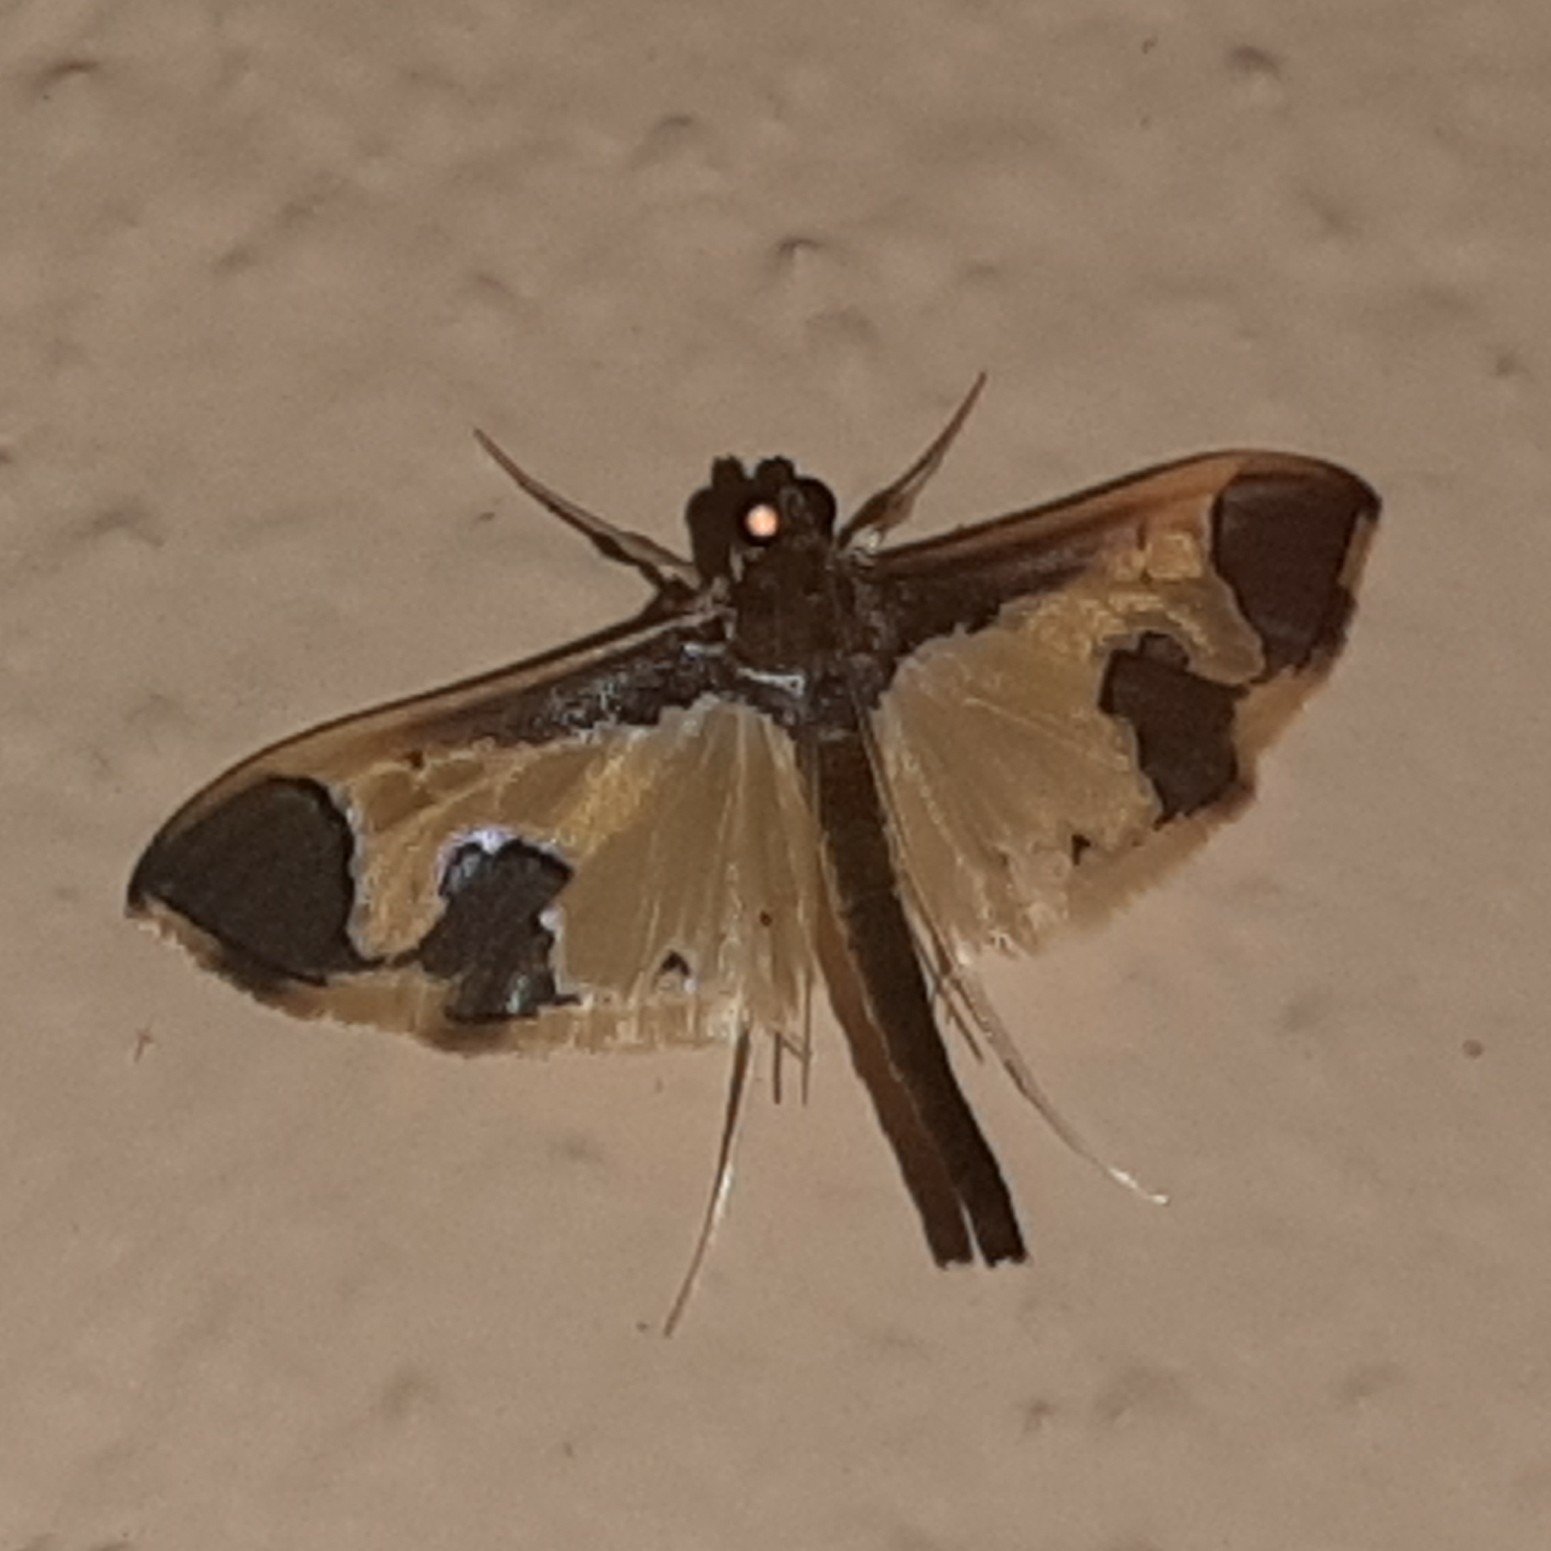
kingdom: Animalia
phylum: Arthropoda
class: Insecta
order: Lepidoptera
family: Crambidae
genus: Syllepis
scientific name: Syllepis marialis
